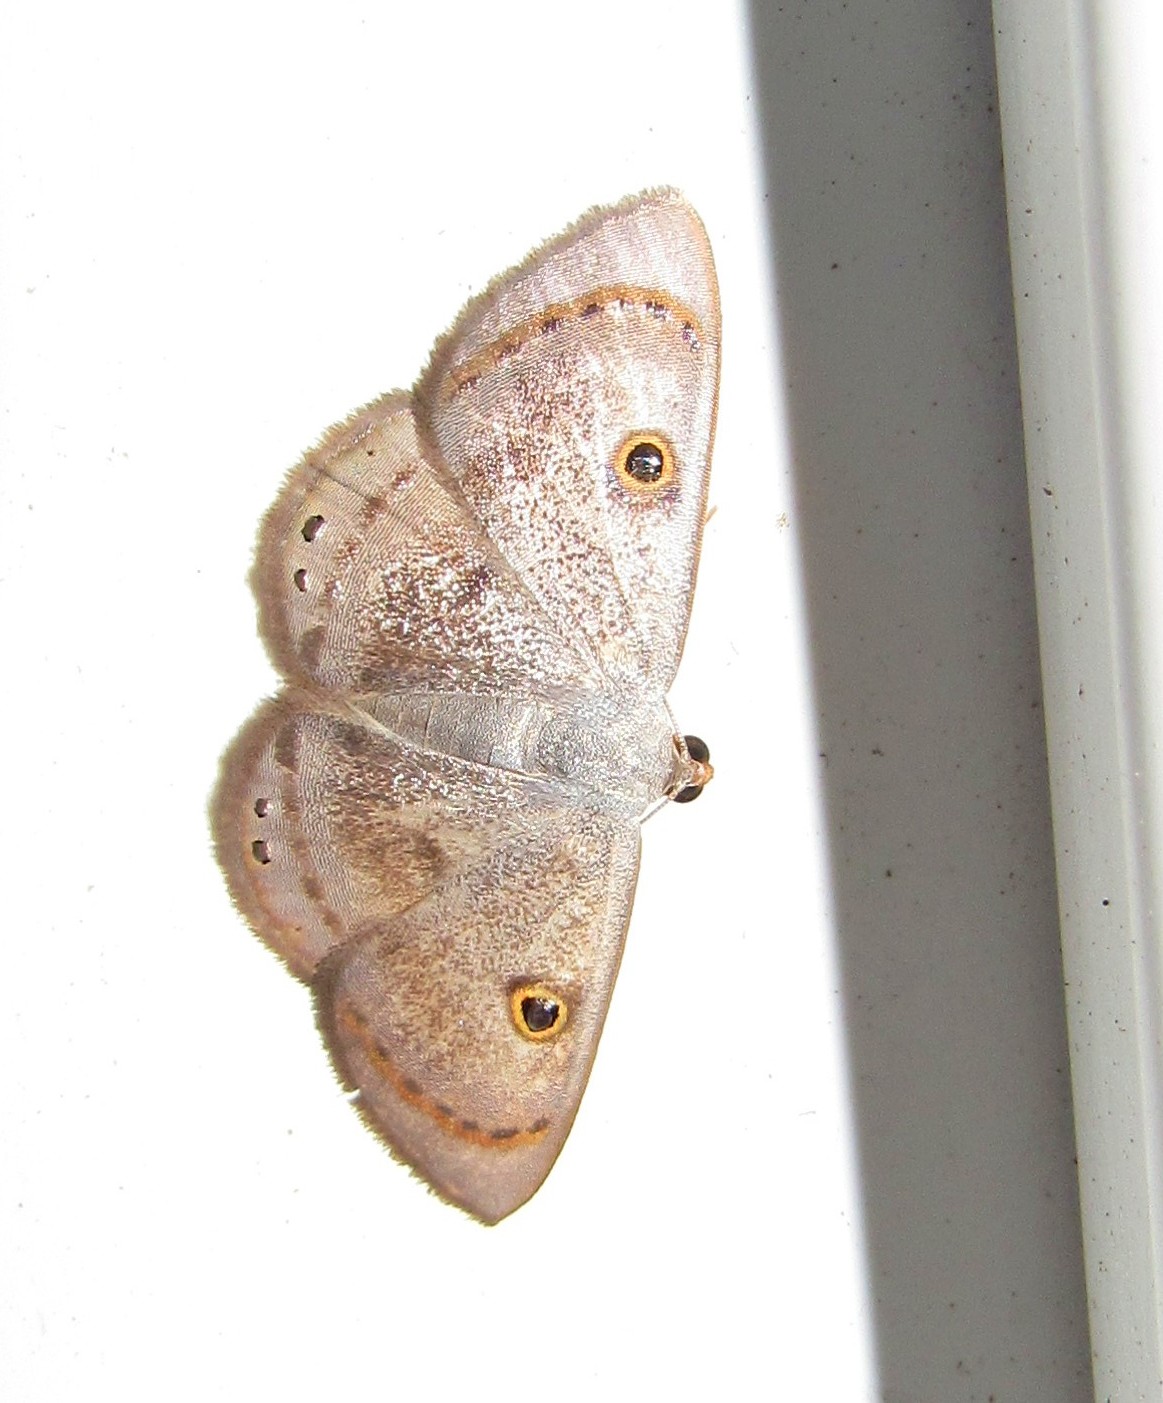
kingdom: Animalia
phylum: Arthropoda
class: Insecta
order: Lepidoptera
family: Geometridae
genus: Argyrotome
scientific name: Argyrotome muricolor
